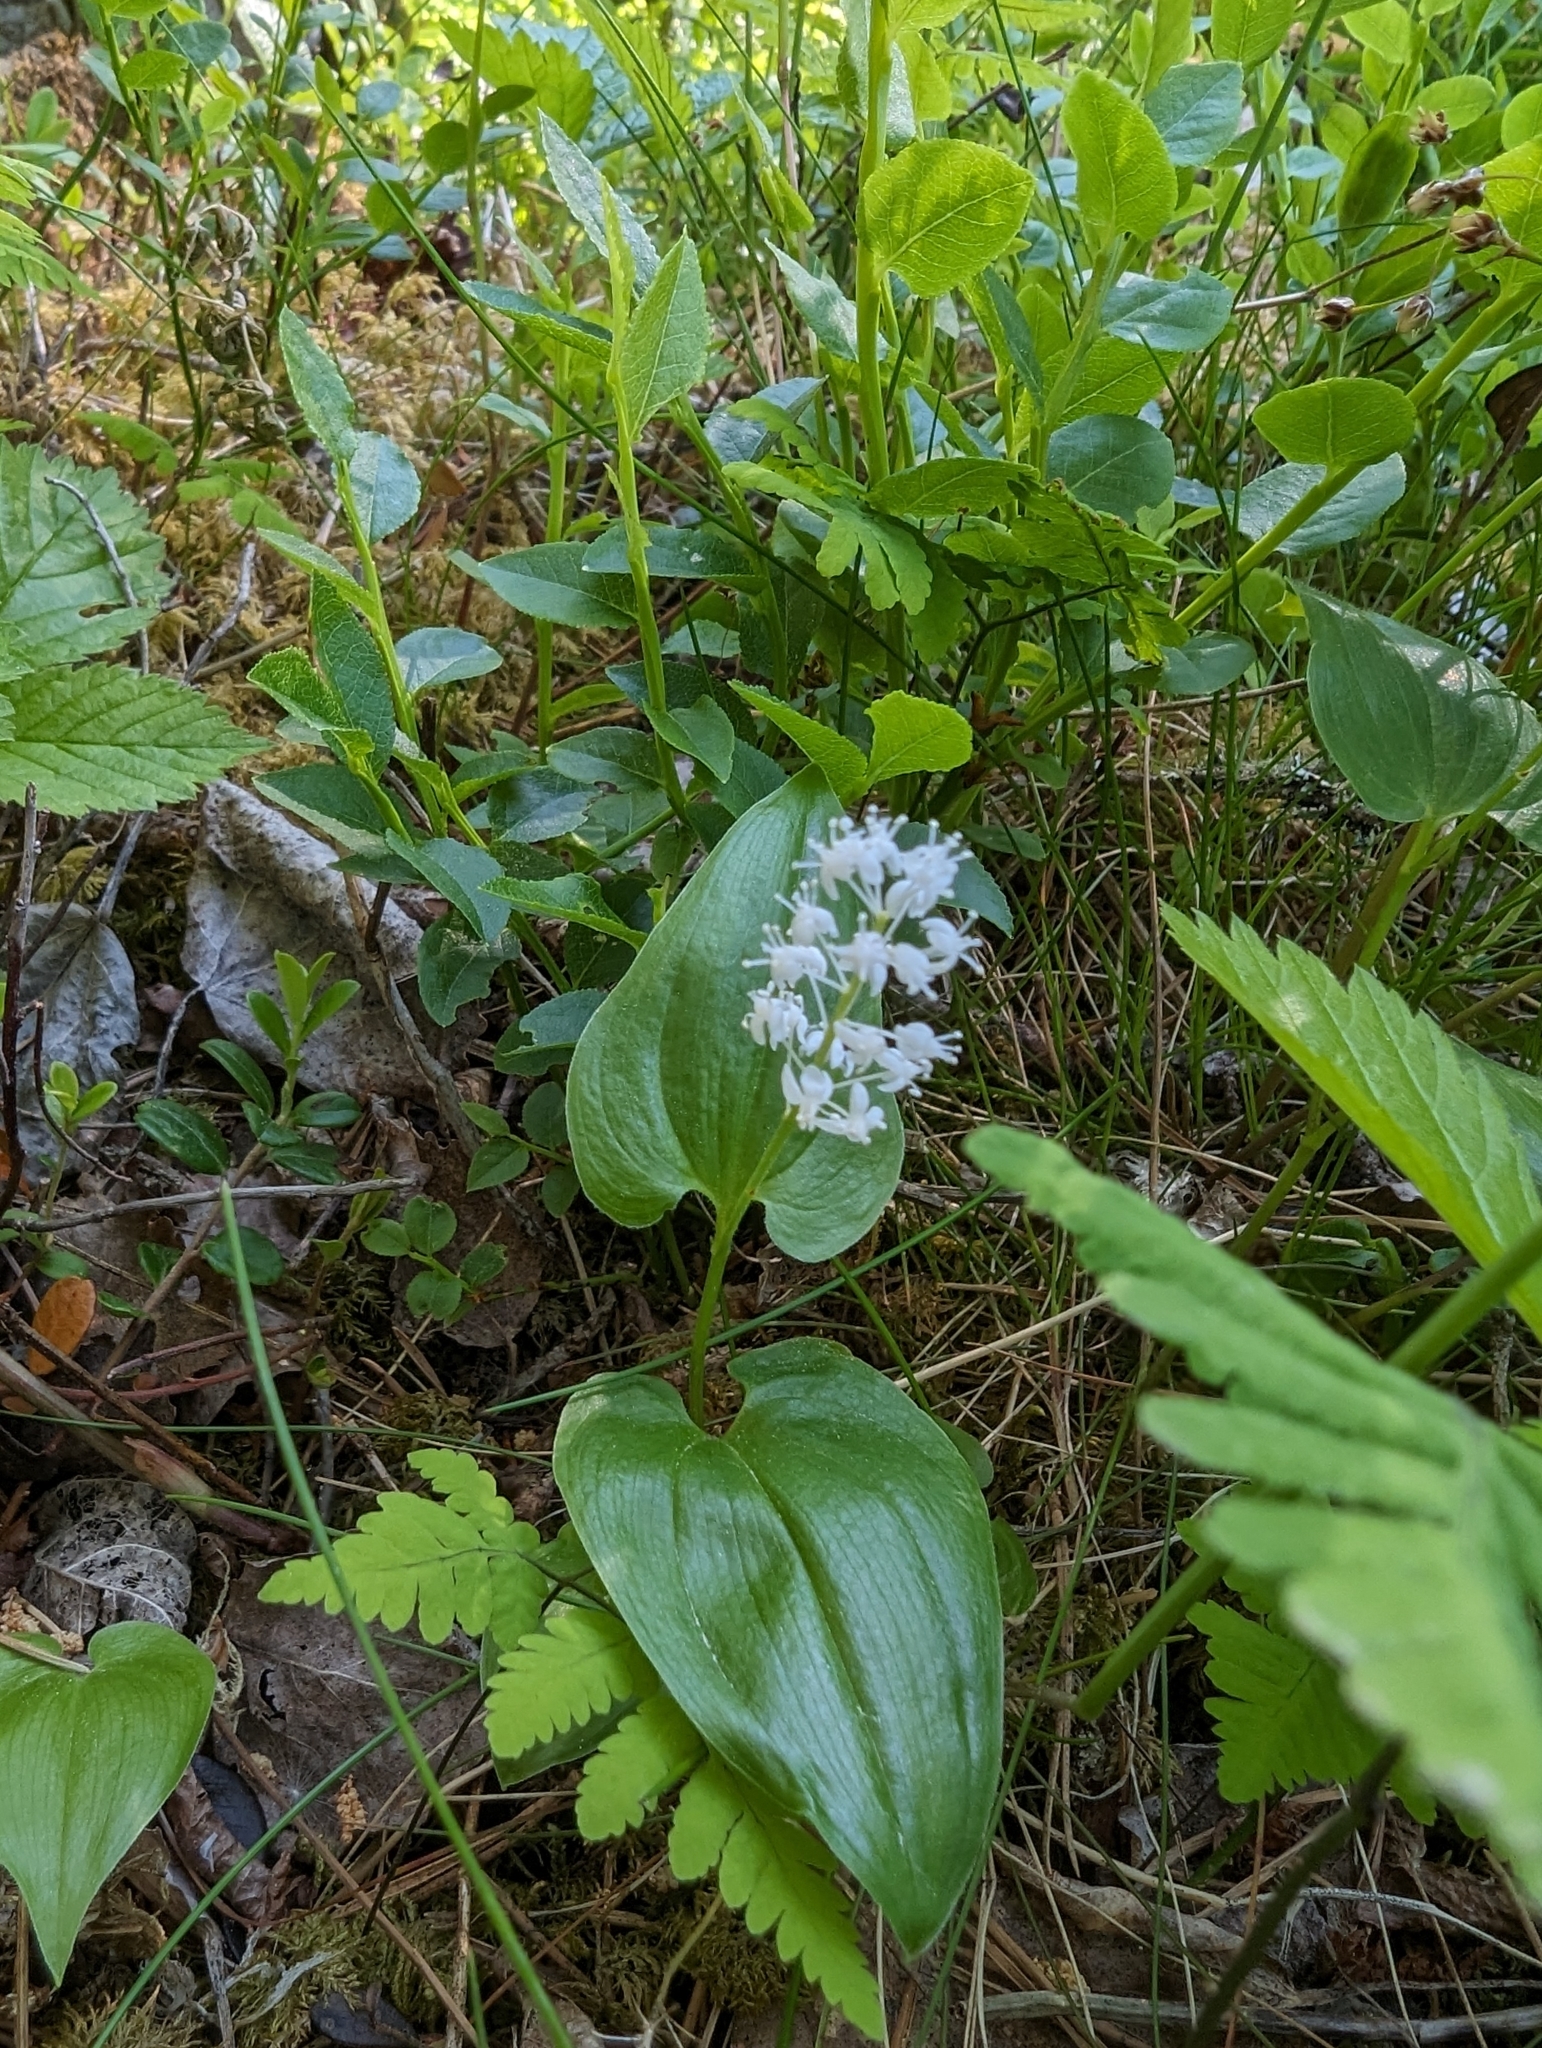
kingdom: Plantae
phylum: Tracheophyta
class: Liliopsida
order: Asparagales
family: Asparagaceae
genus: Maianthemum
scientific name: Maianthemum bifolium
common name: May lily
